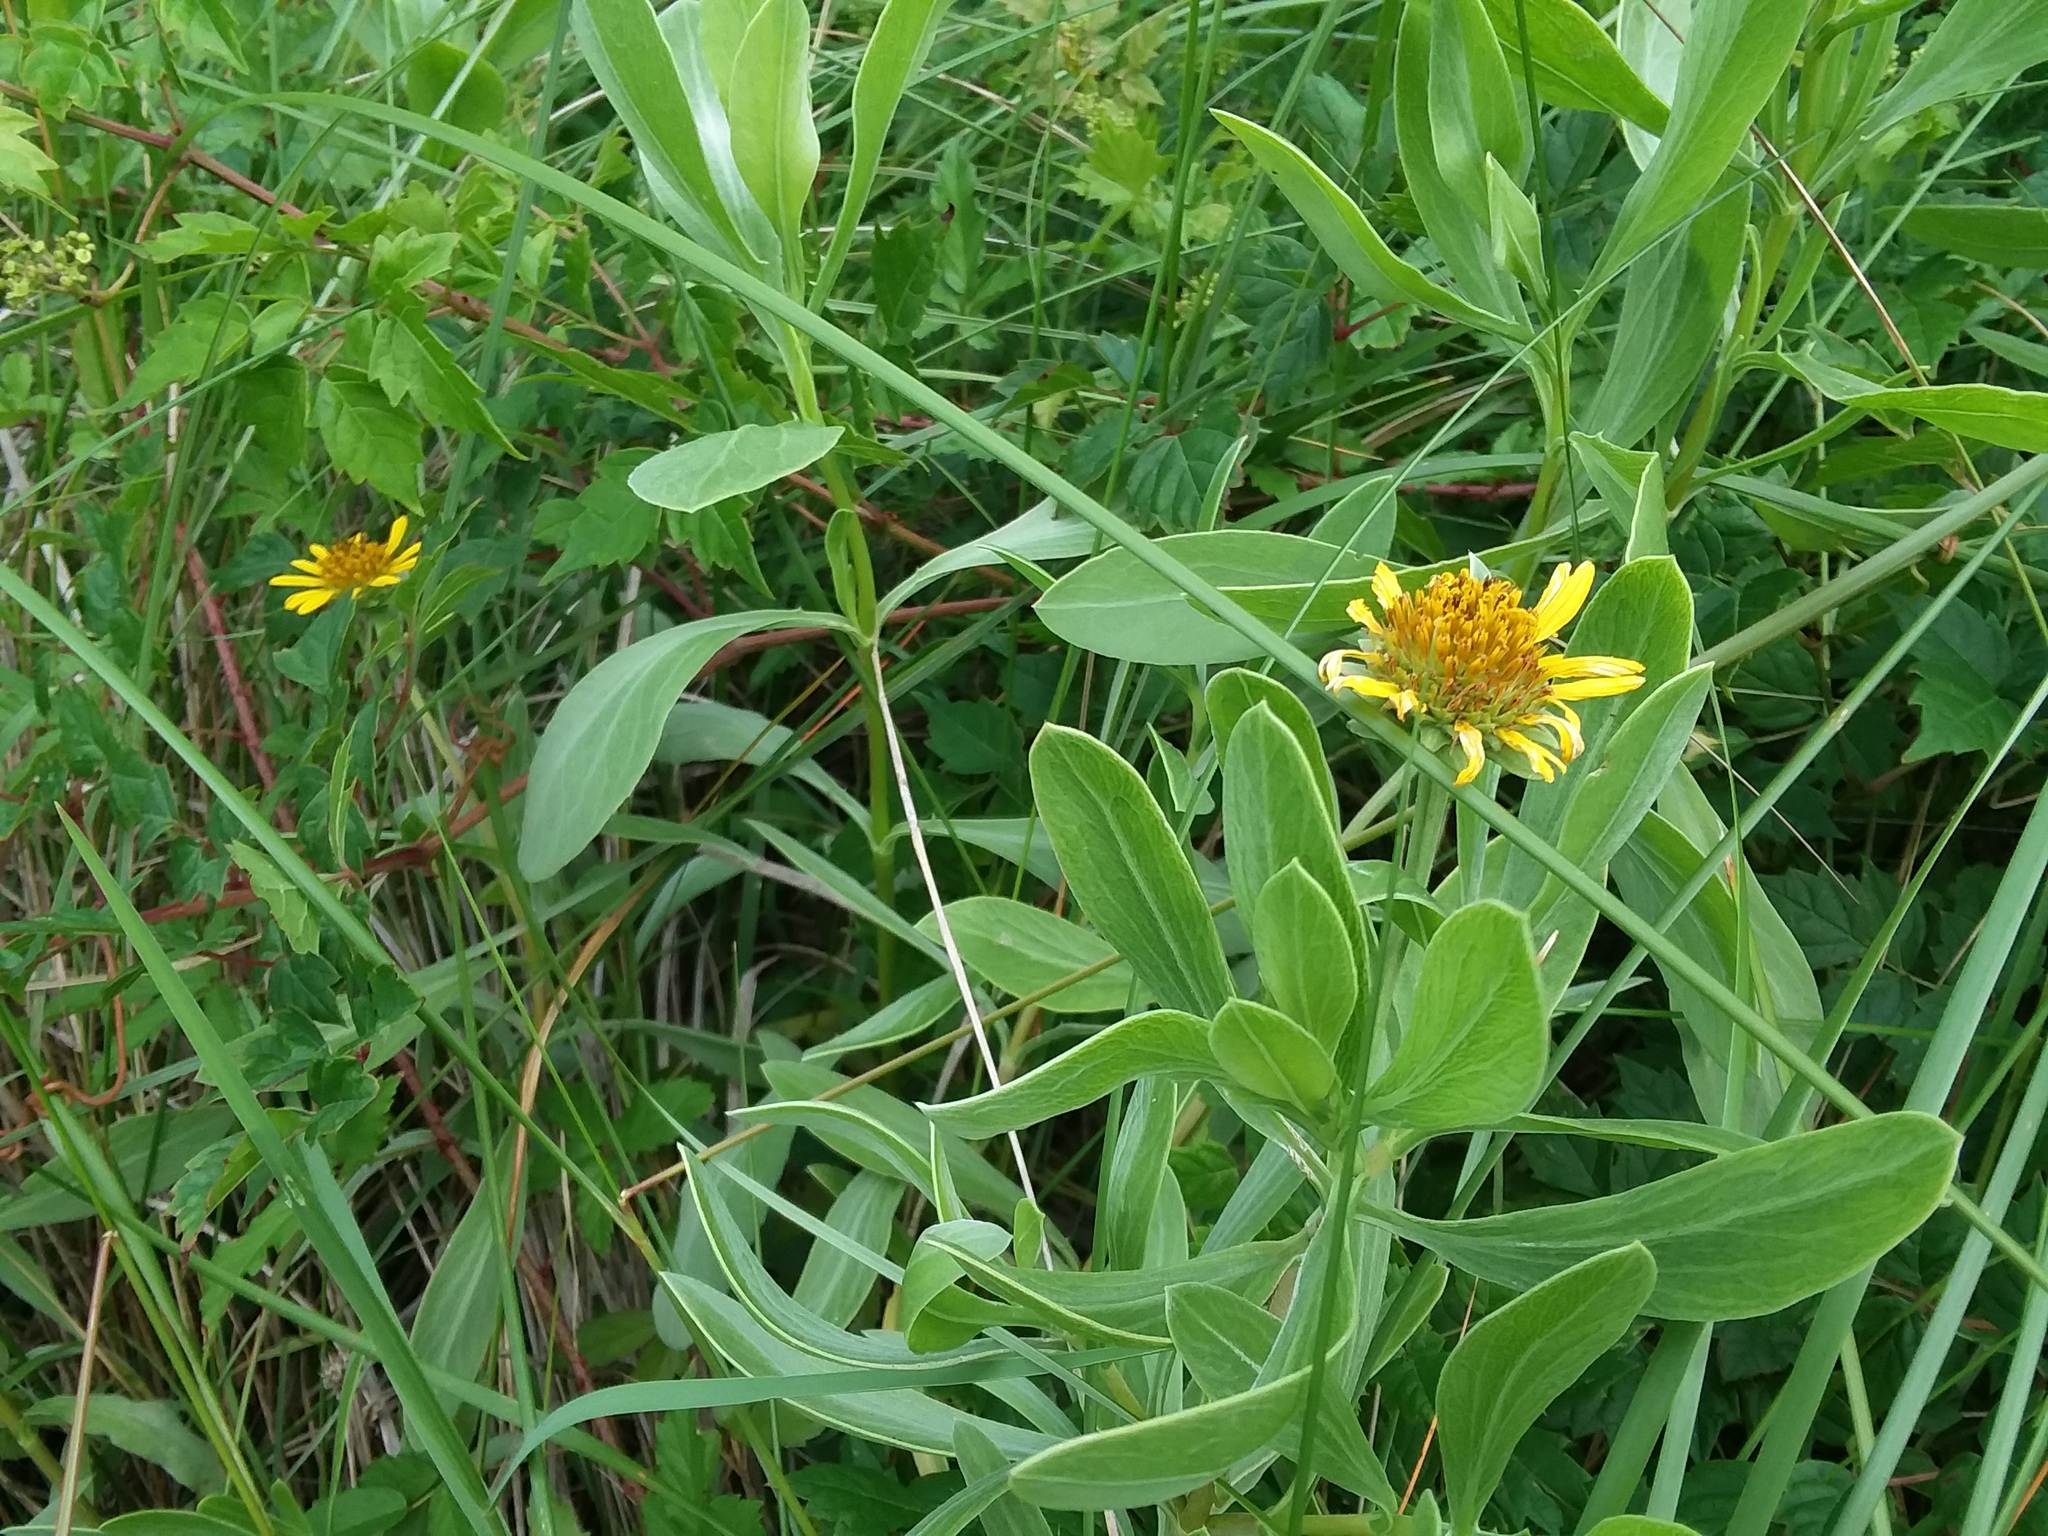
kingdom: Plantae
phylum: Tracheophyta
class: Magnoliopsida
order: Asterales
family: Asteraceae
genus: Borrichia
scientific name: Borrichia frutescens
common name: Sea oxeye
